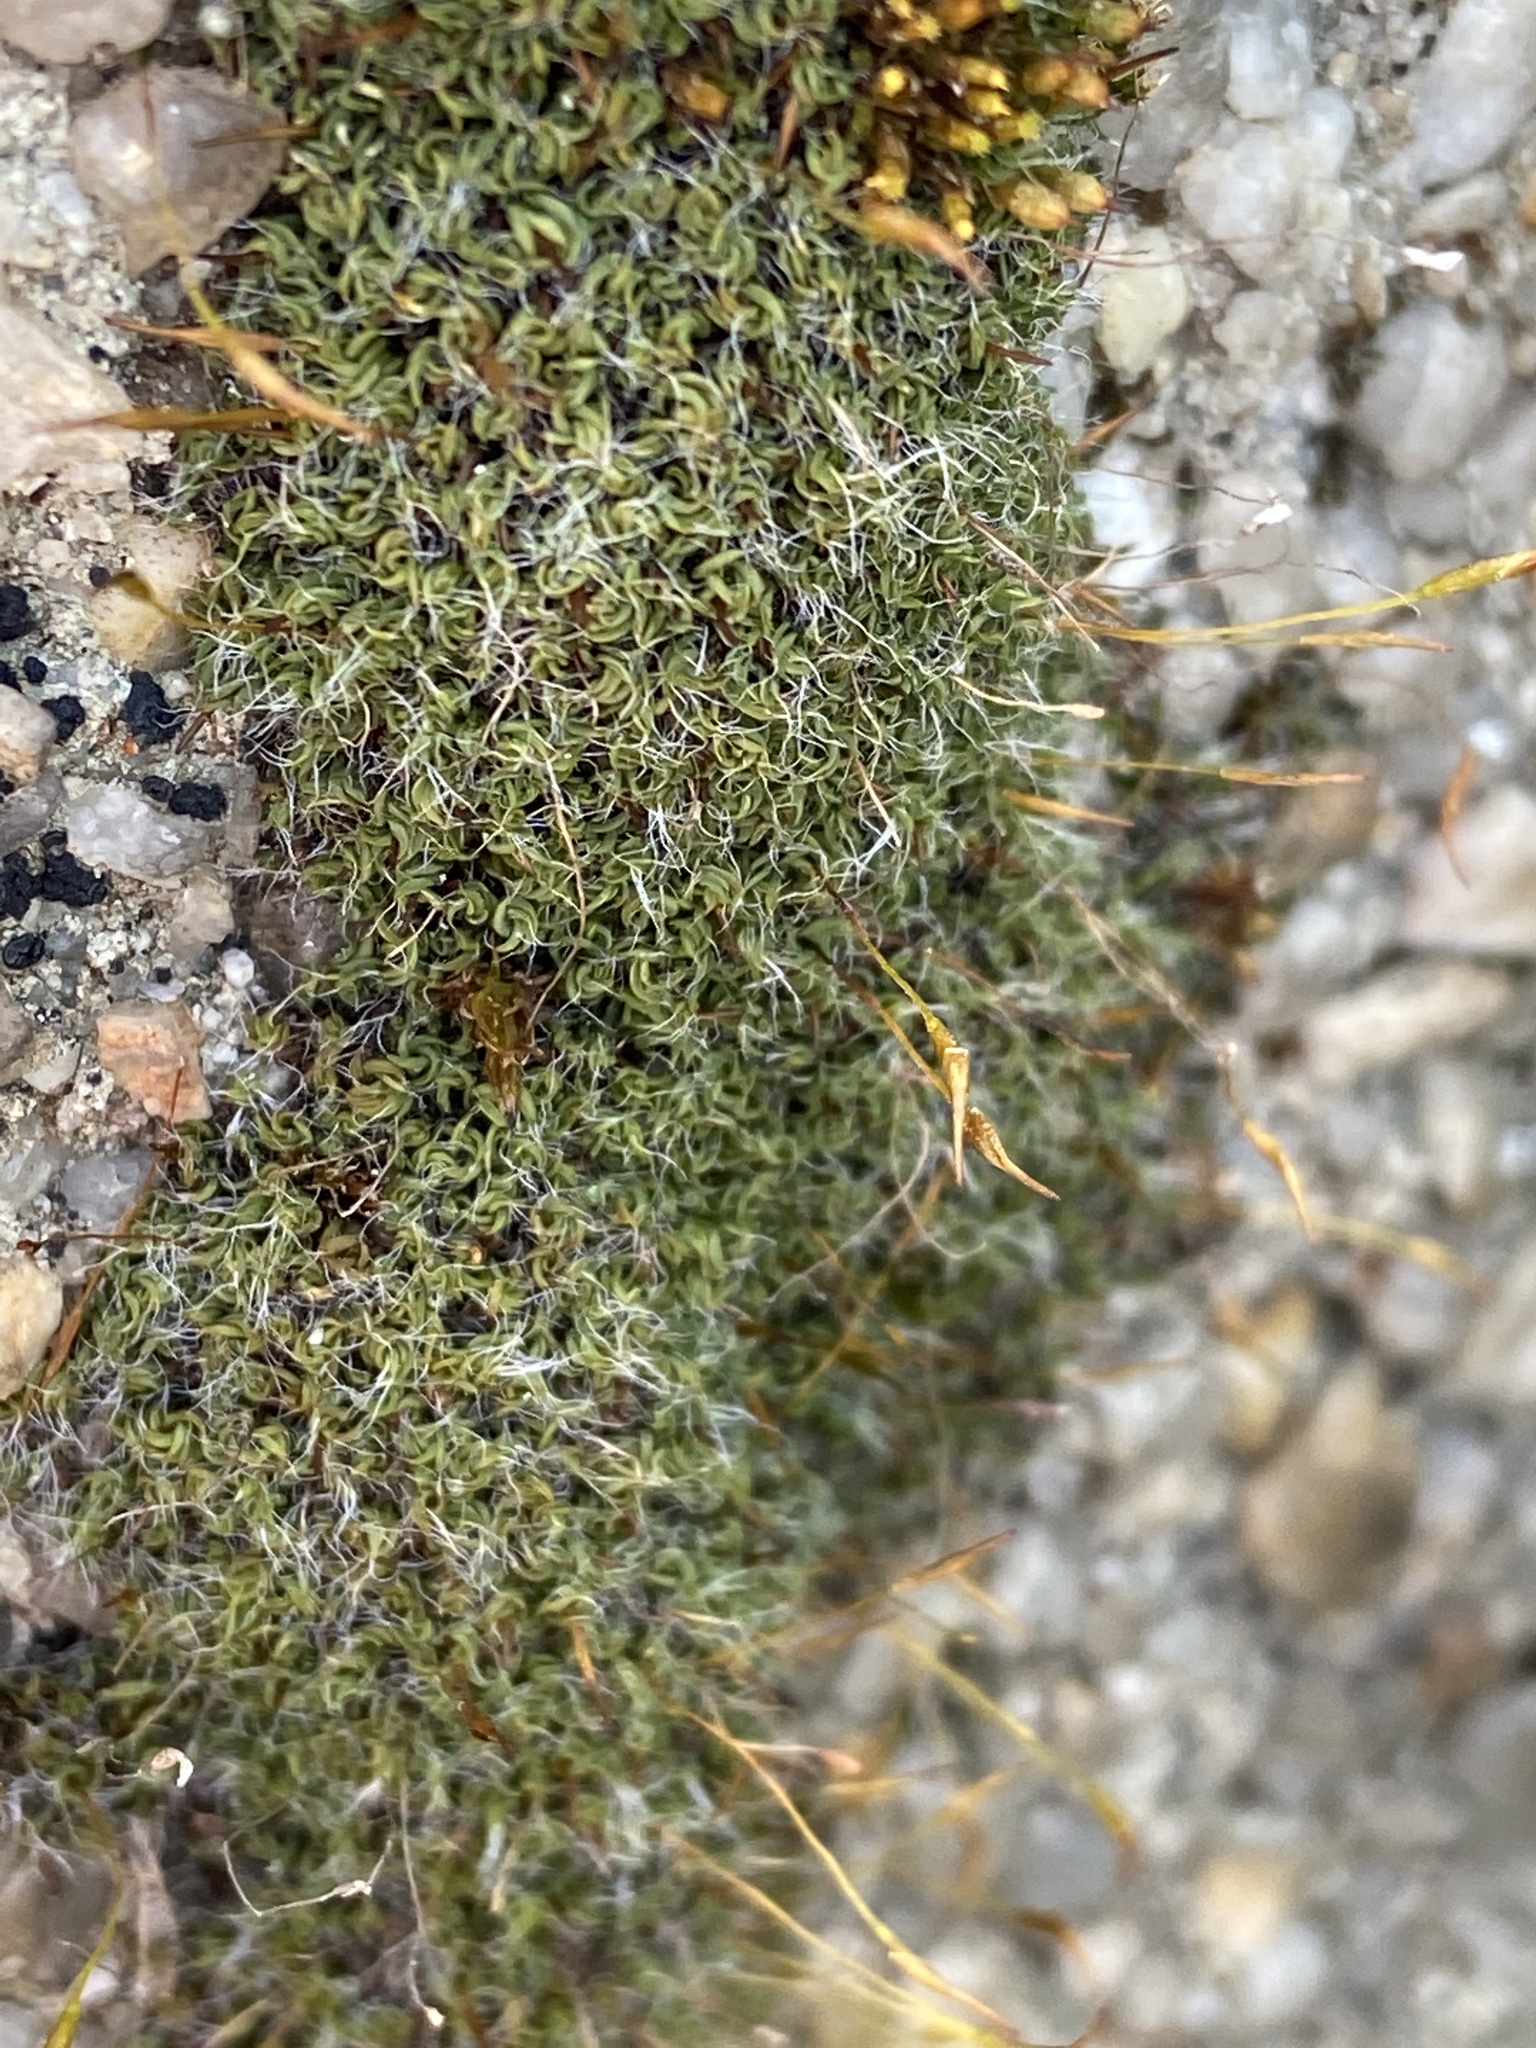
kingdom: Plantae
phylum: Bryophyta
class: Bryopsida
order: Pottiales
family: Pottiaceae
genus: Tortula
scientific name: Tortula muralis
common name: Wall screw-moss
